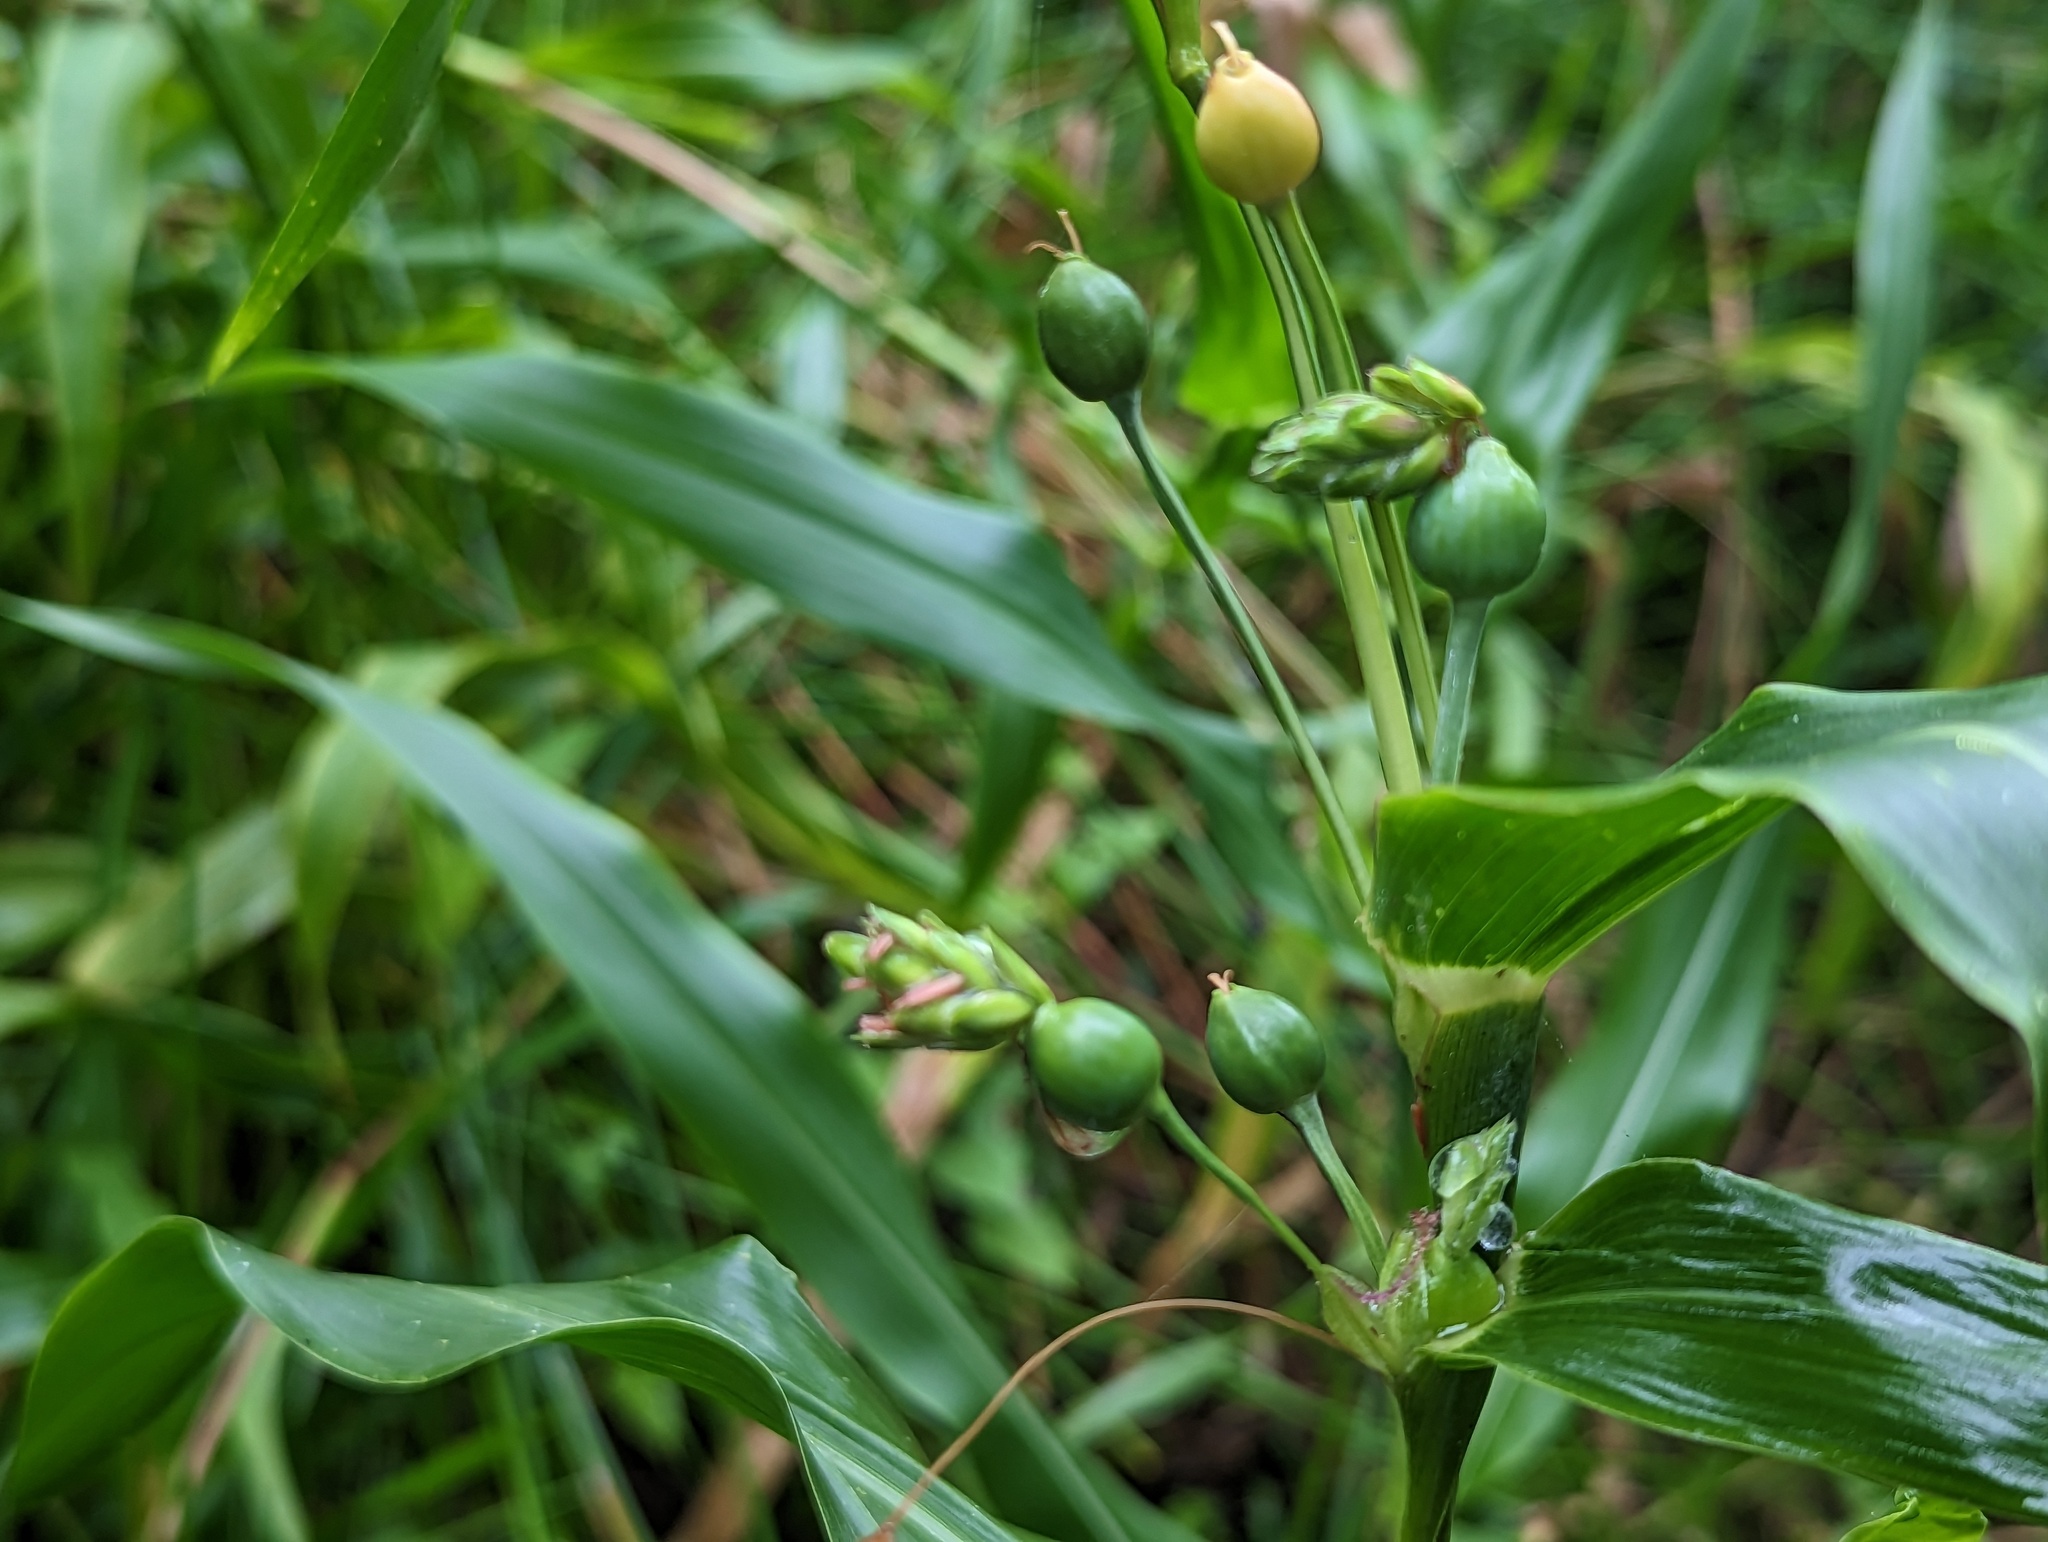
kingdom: Plantae
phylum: Tracheophyta
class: Liliopsida
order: Poales
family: Poaceae
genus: Coix
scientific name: Coix lacryma-jobi
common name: Job's tears
